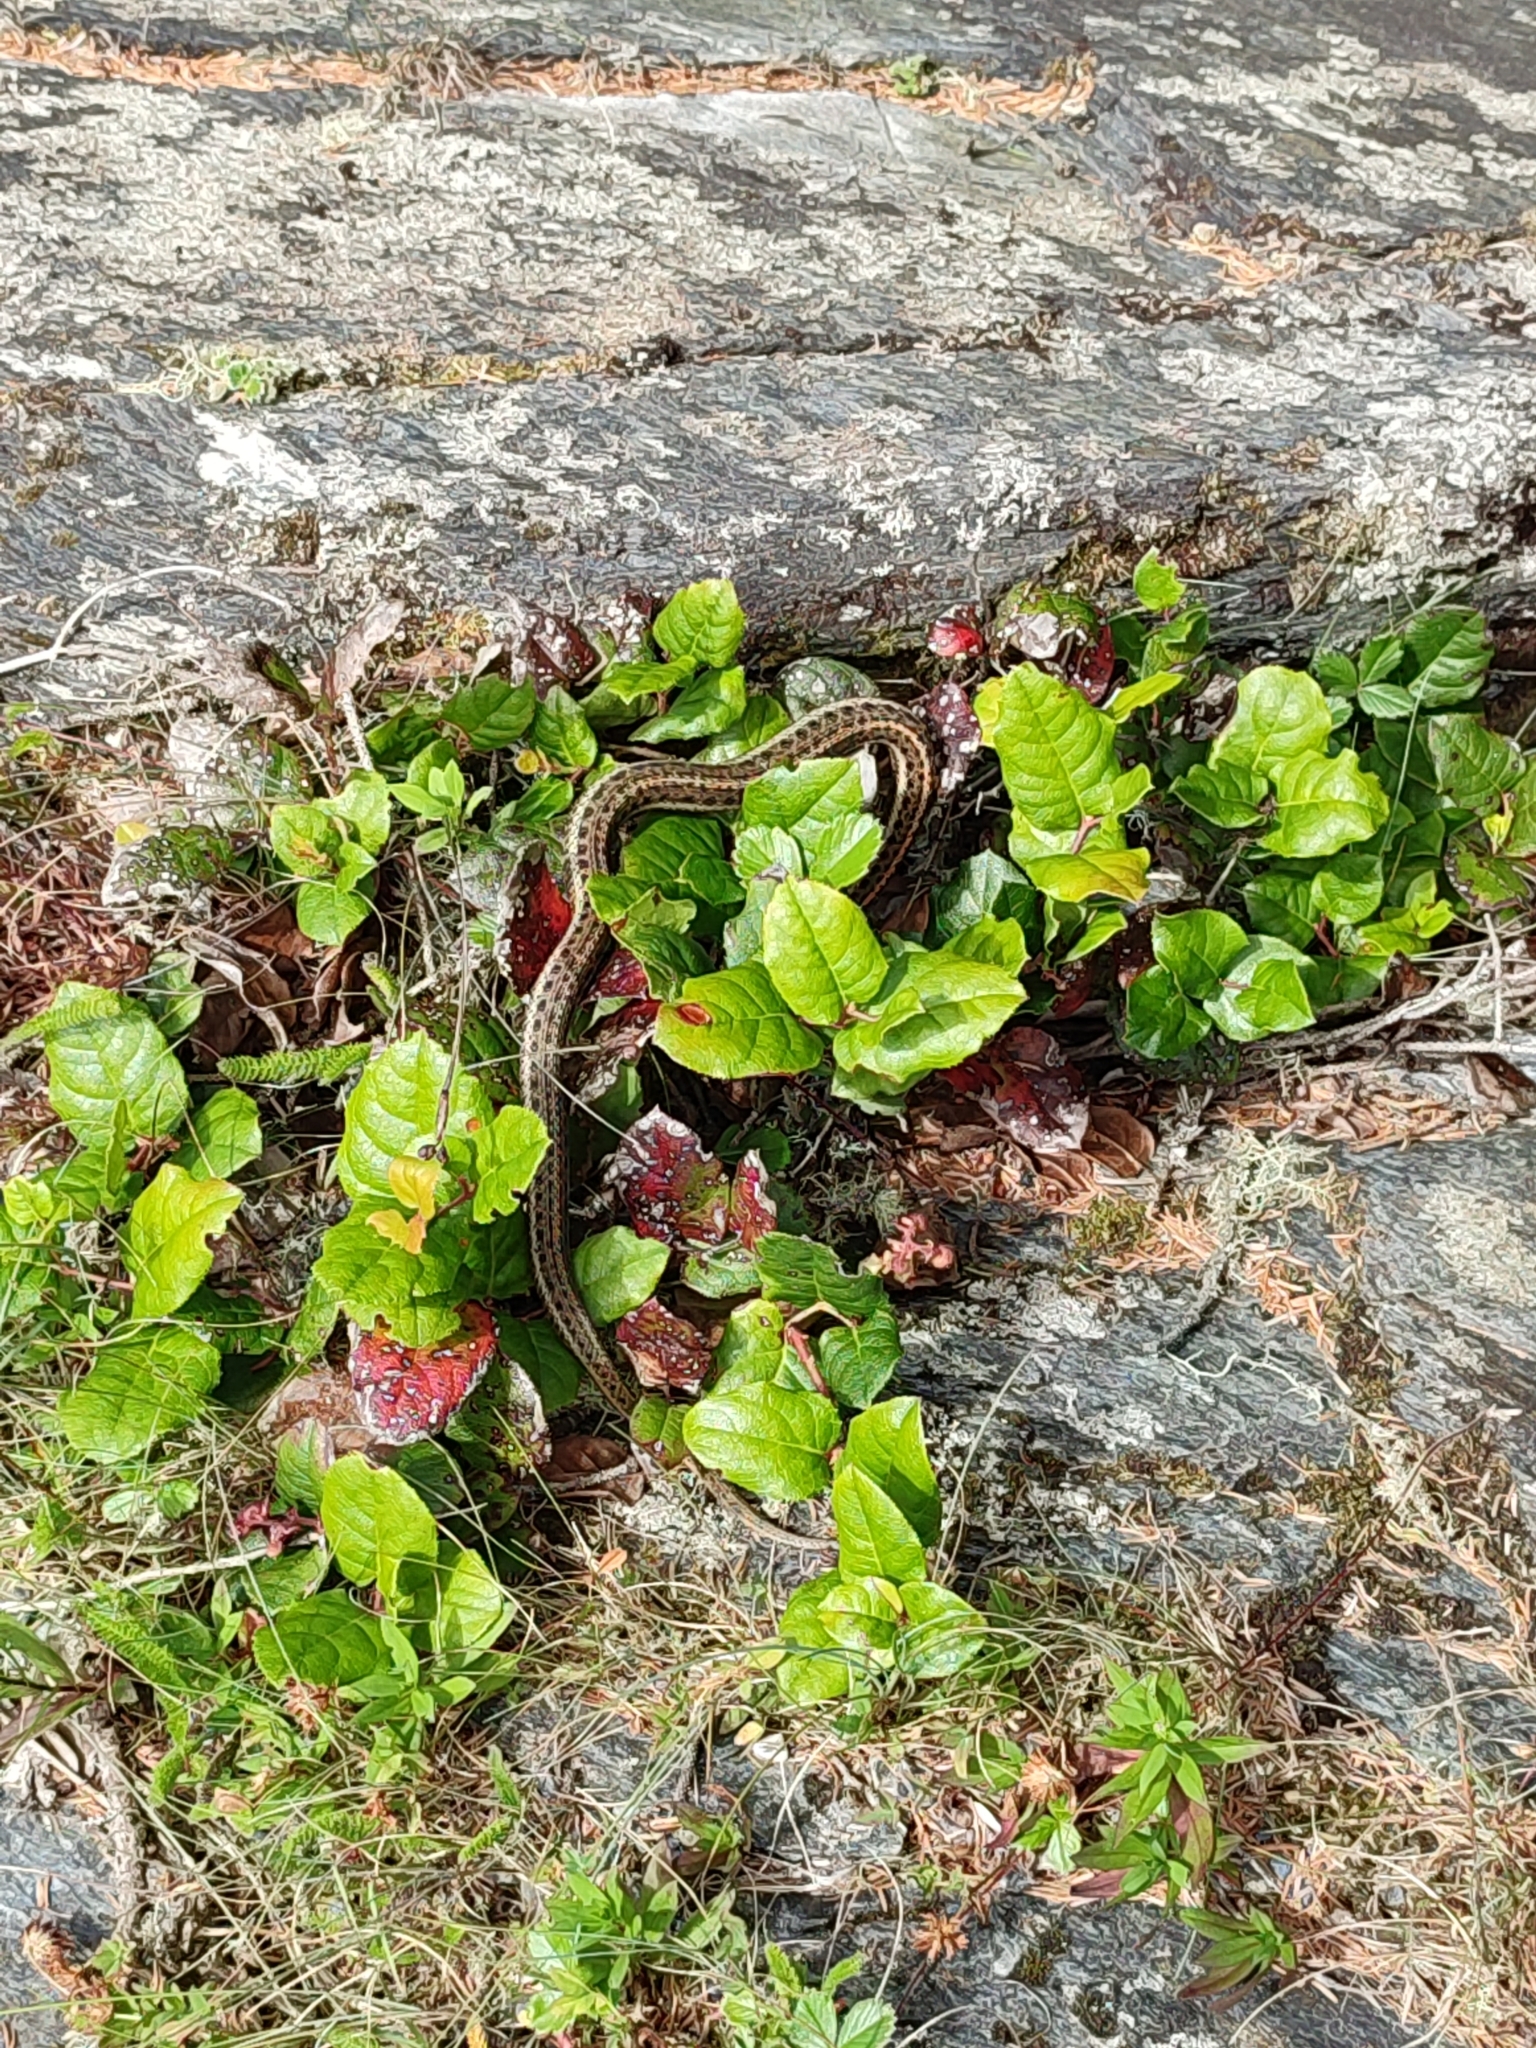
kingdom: Animalia
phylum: Chordata
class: Squamata
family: Colubridae
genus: Thamnophis
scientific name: Thamnophis ordinoides
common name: Northwestern garter snake
